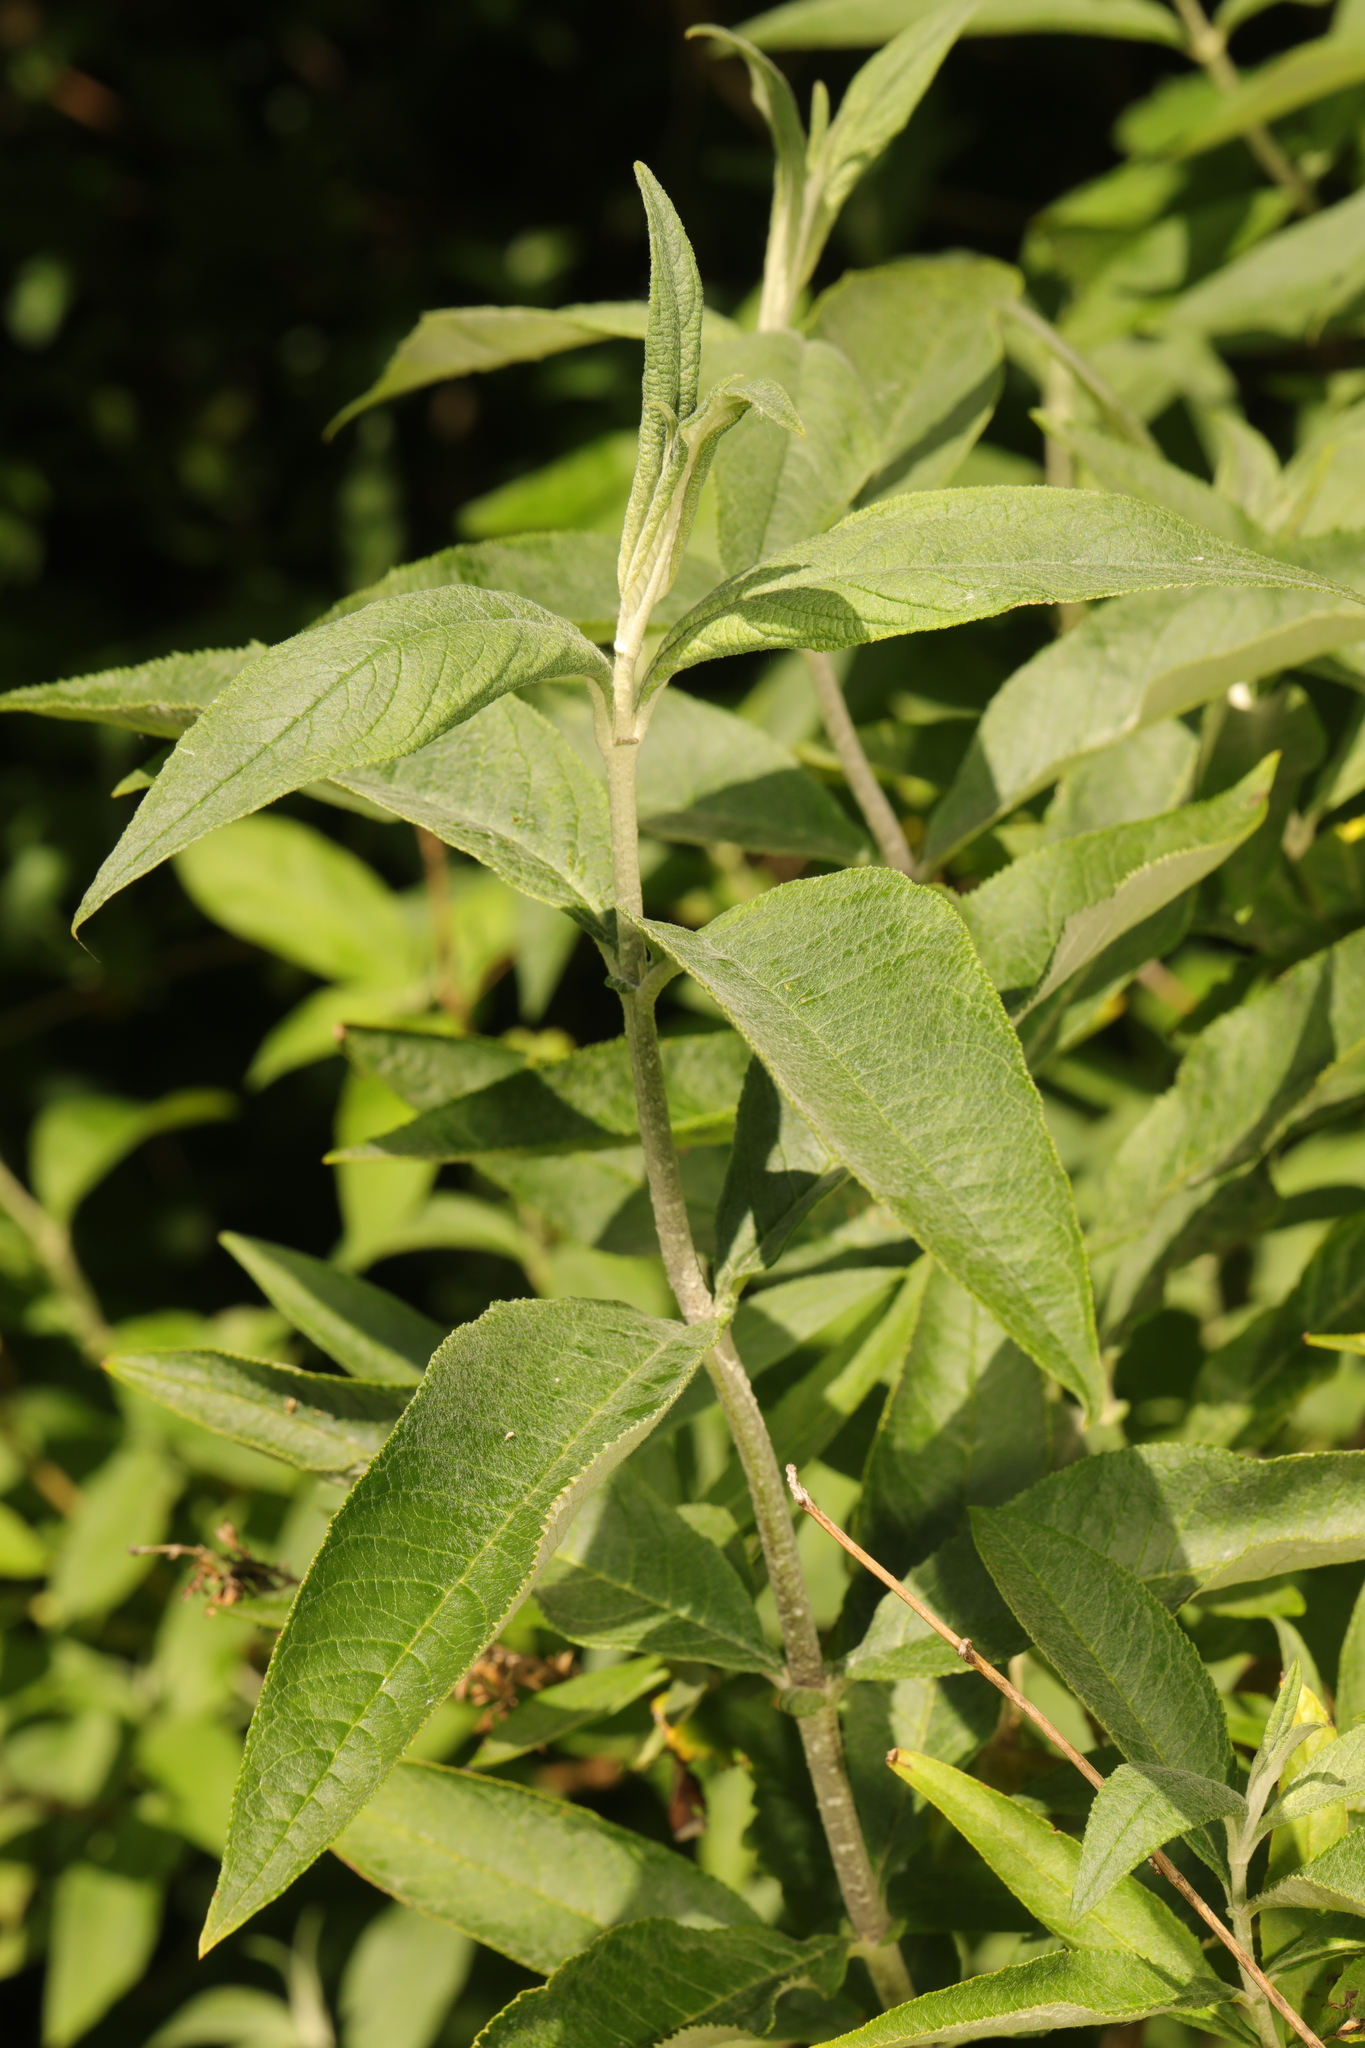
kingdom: Plantae
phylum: Tracheophyta
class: Magnoliopsida
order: Lamiales
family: Scrophulariaceae
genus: Buddleja
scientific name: Buddleja davidii
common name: Butterfly-bush
